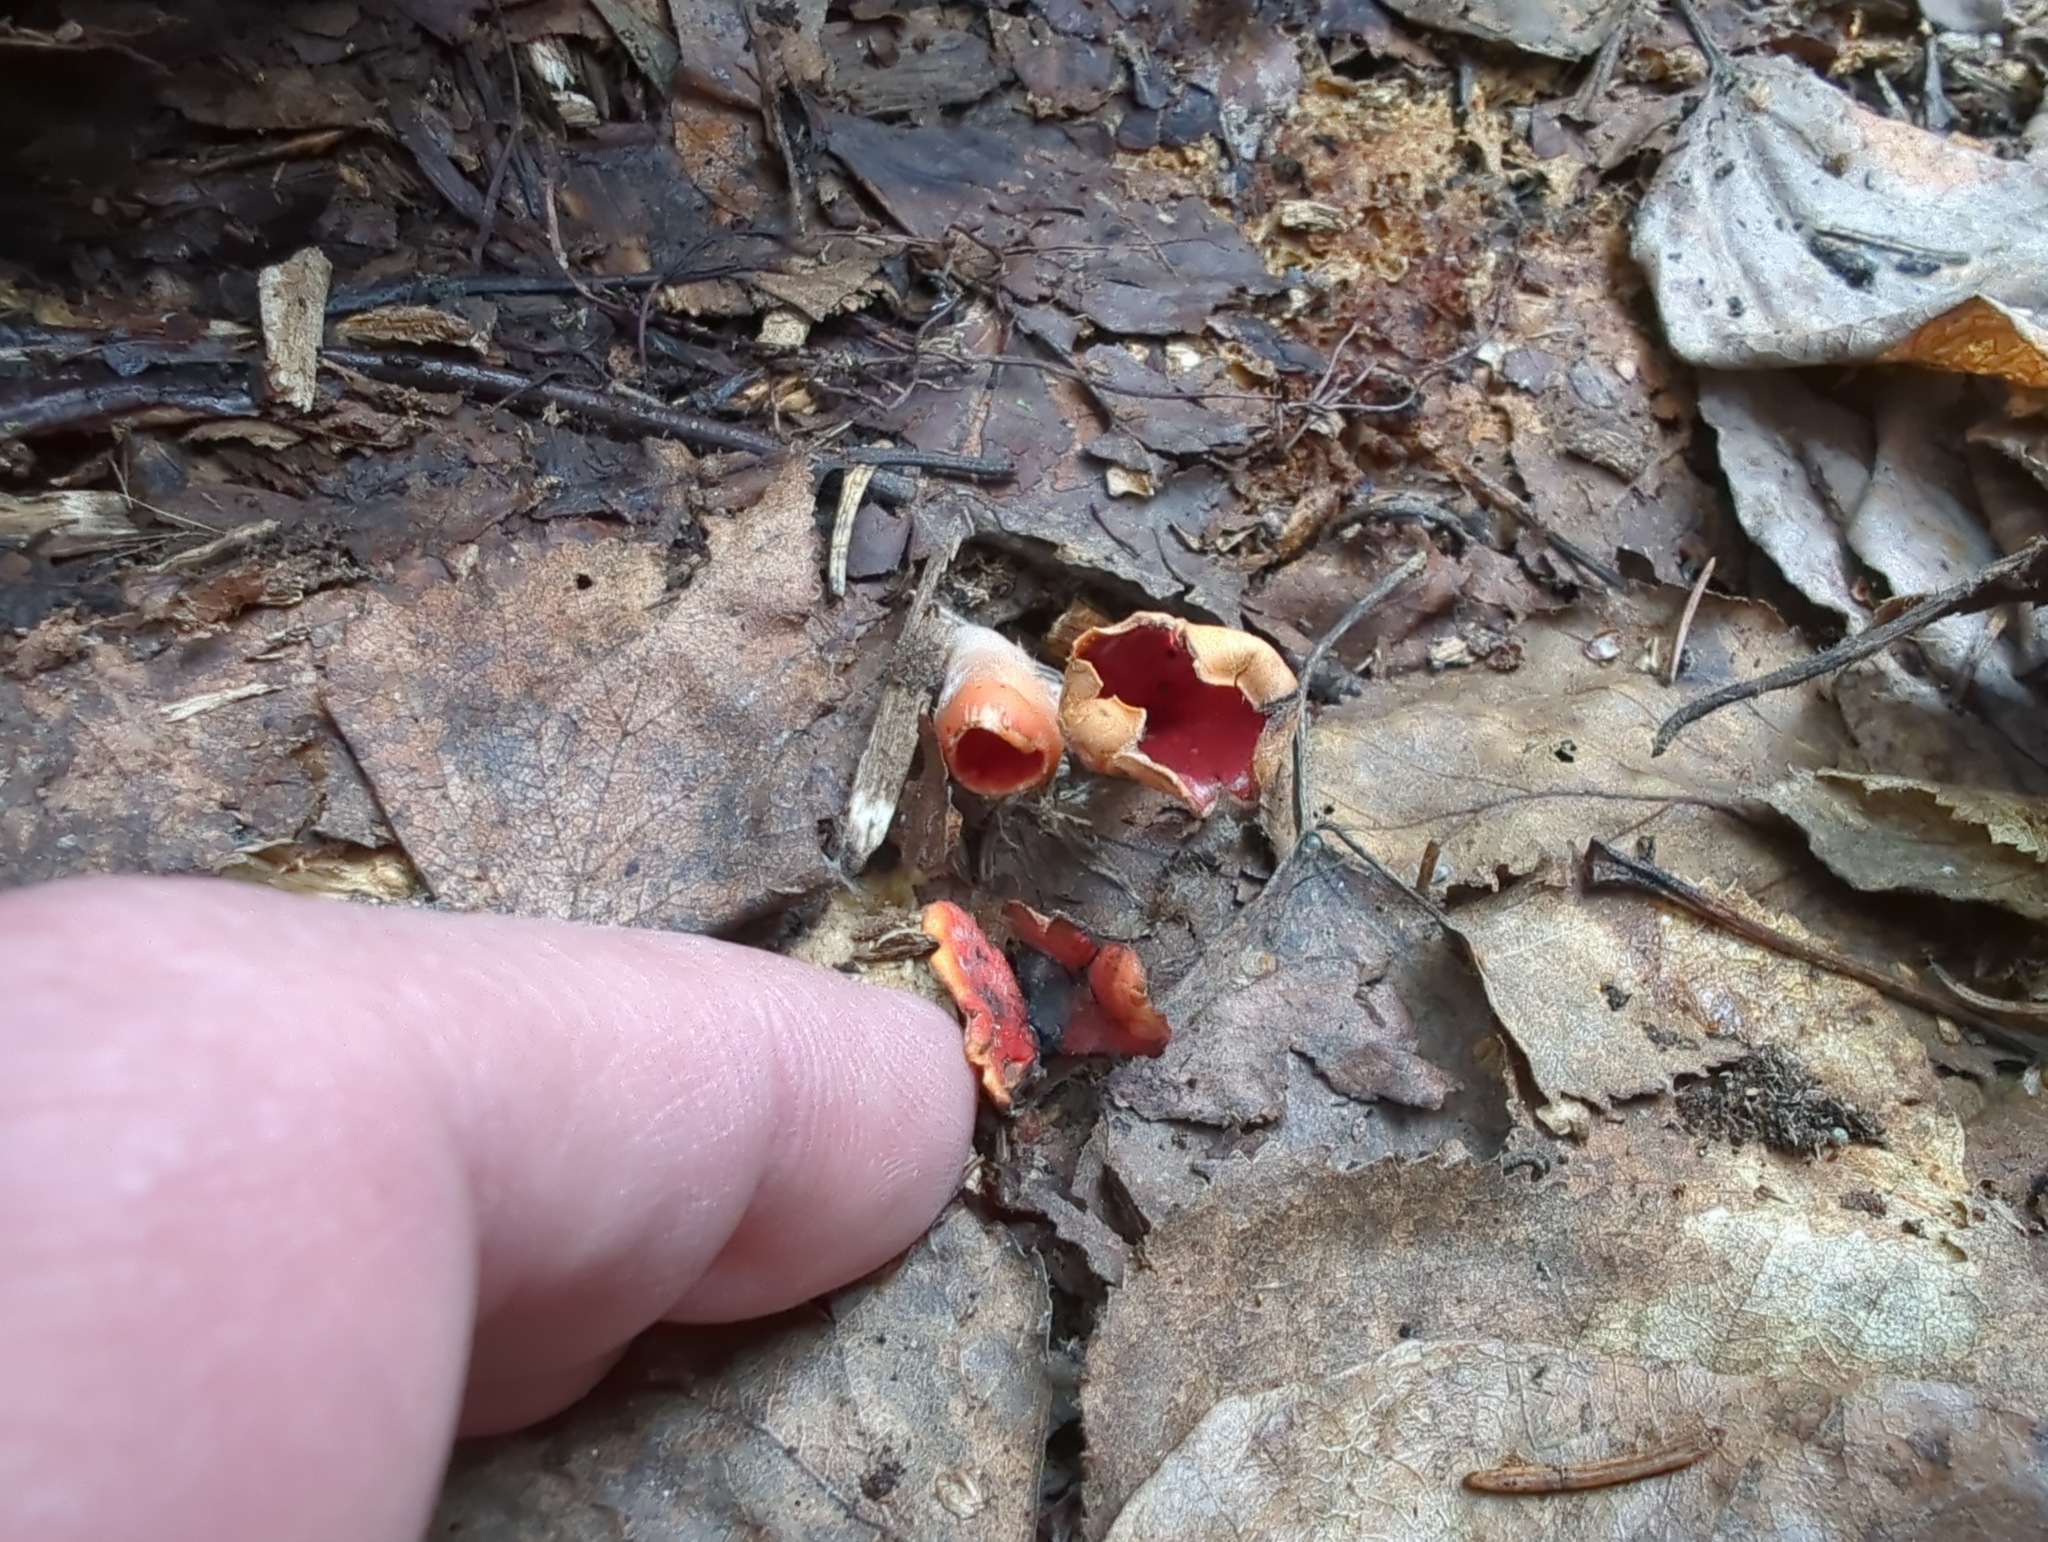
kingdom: Fungi
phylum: Ascomycota
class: Pezizomycetes
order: Pezizales
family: Sarcoscyphaceae
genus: Microstoma
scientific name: Microstoma protractum
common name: Rosy goblet
